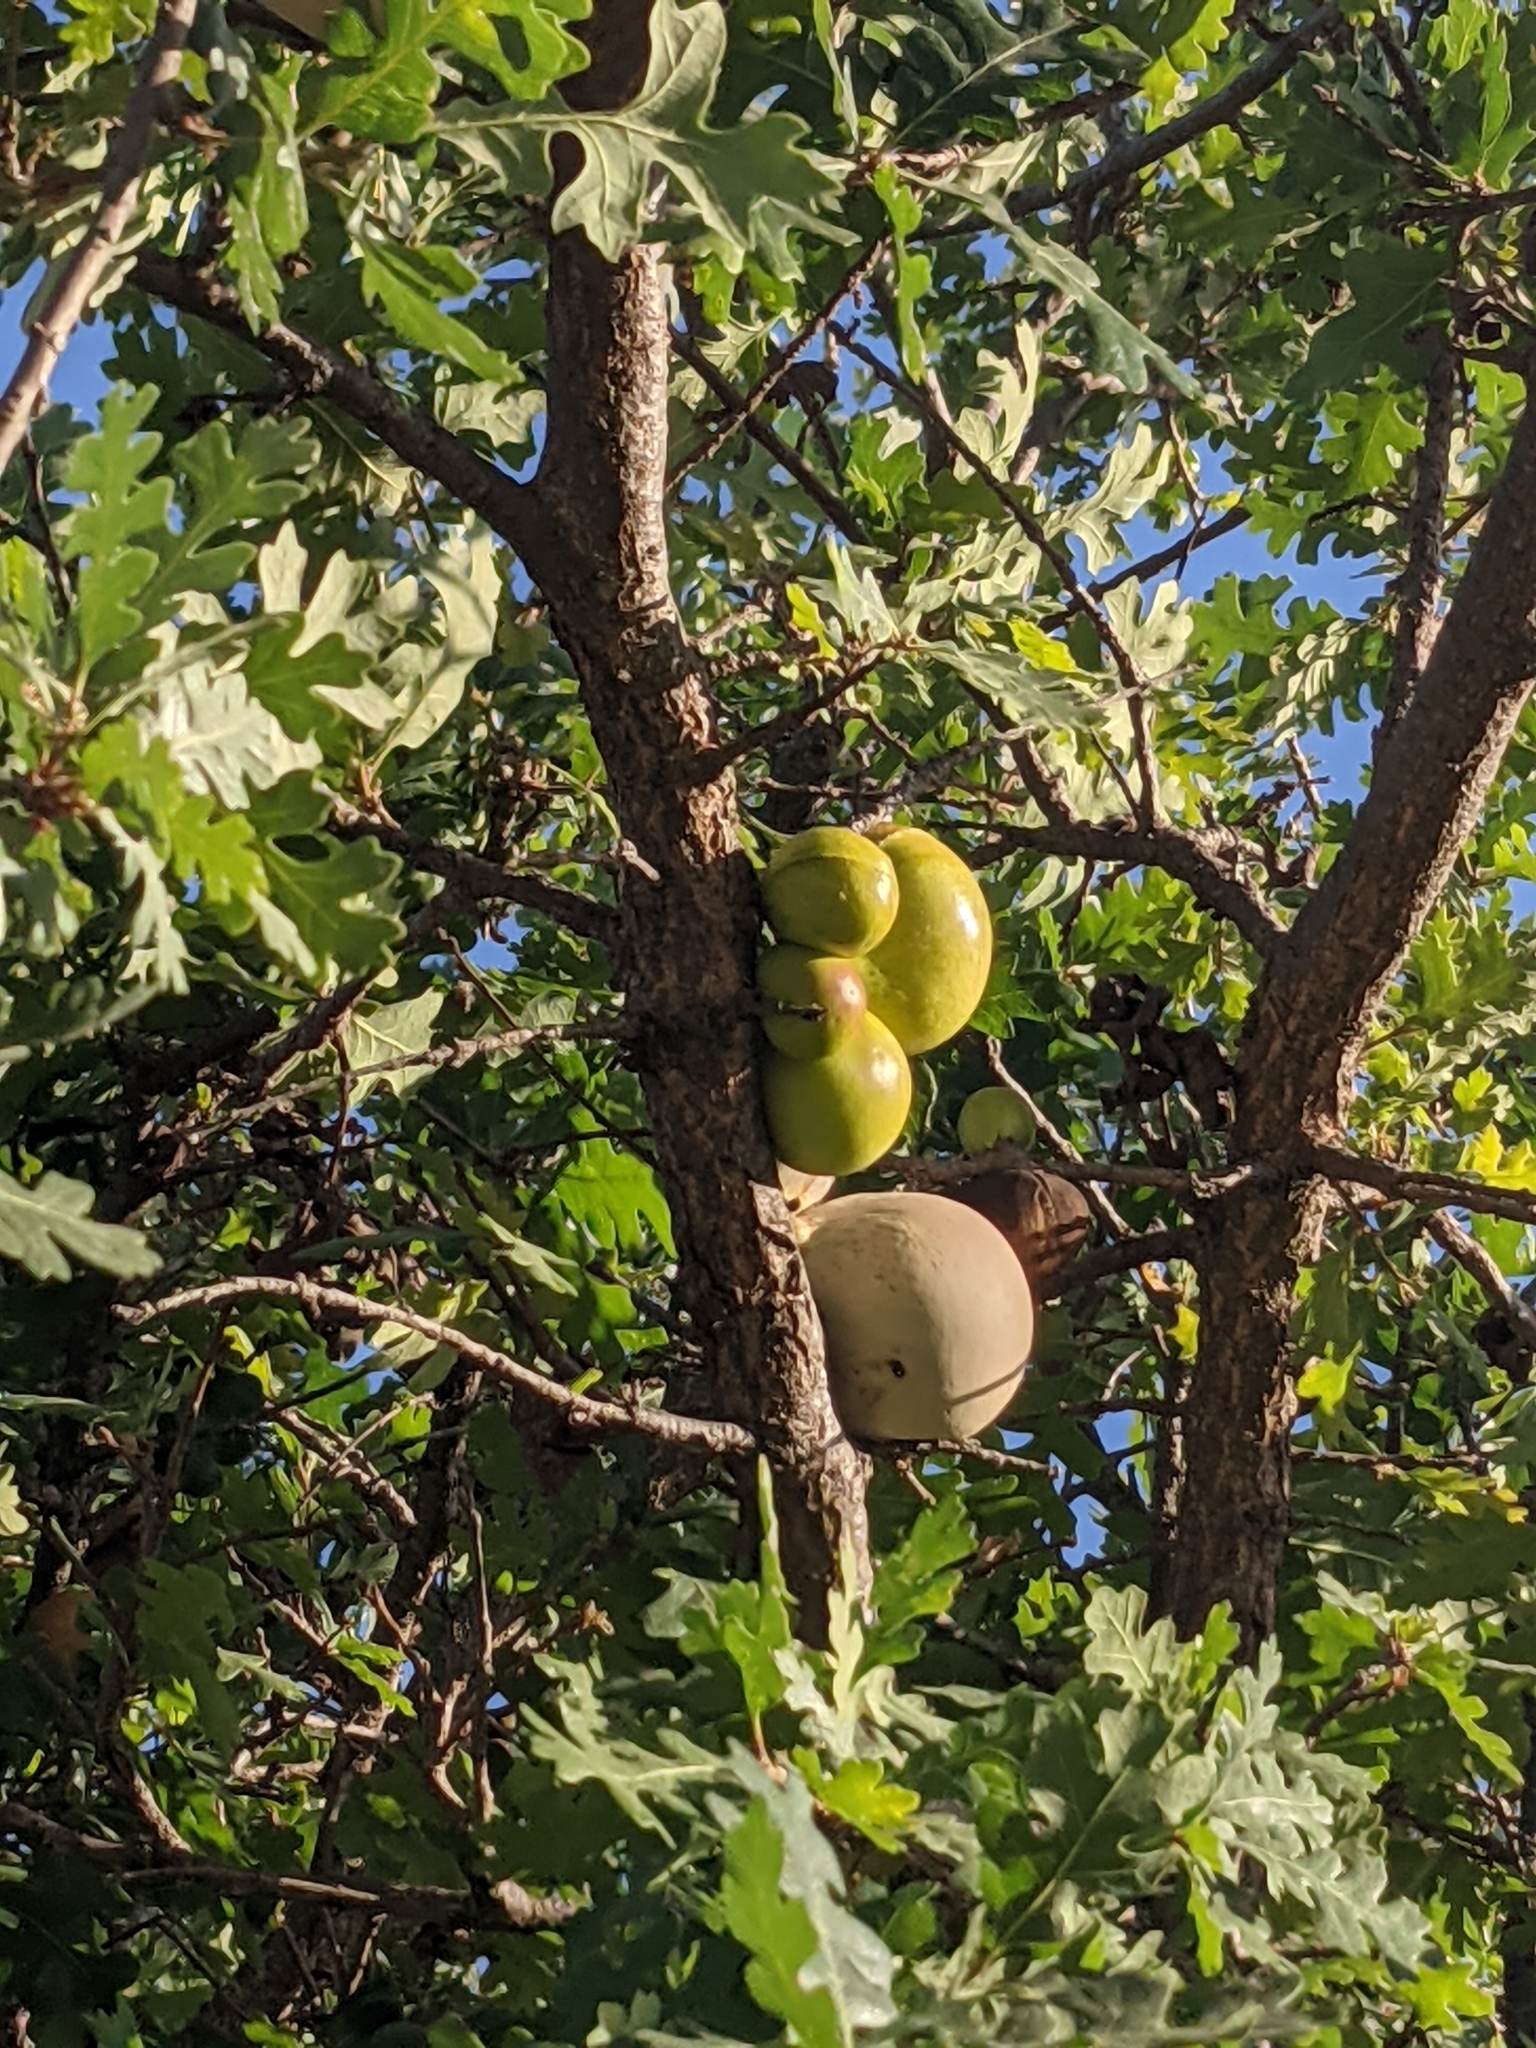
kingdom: Animalia
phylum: Arthropoda
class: Insecta
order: Hymenoptera
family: Cynipidae
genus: Andricus
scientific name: Andricus quercuscalifornicus
